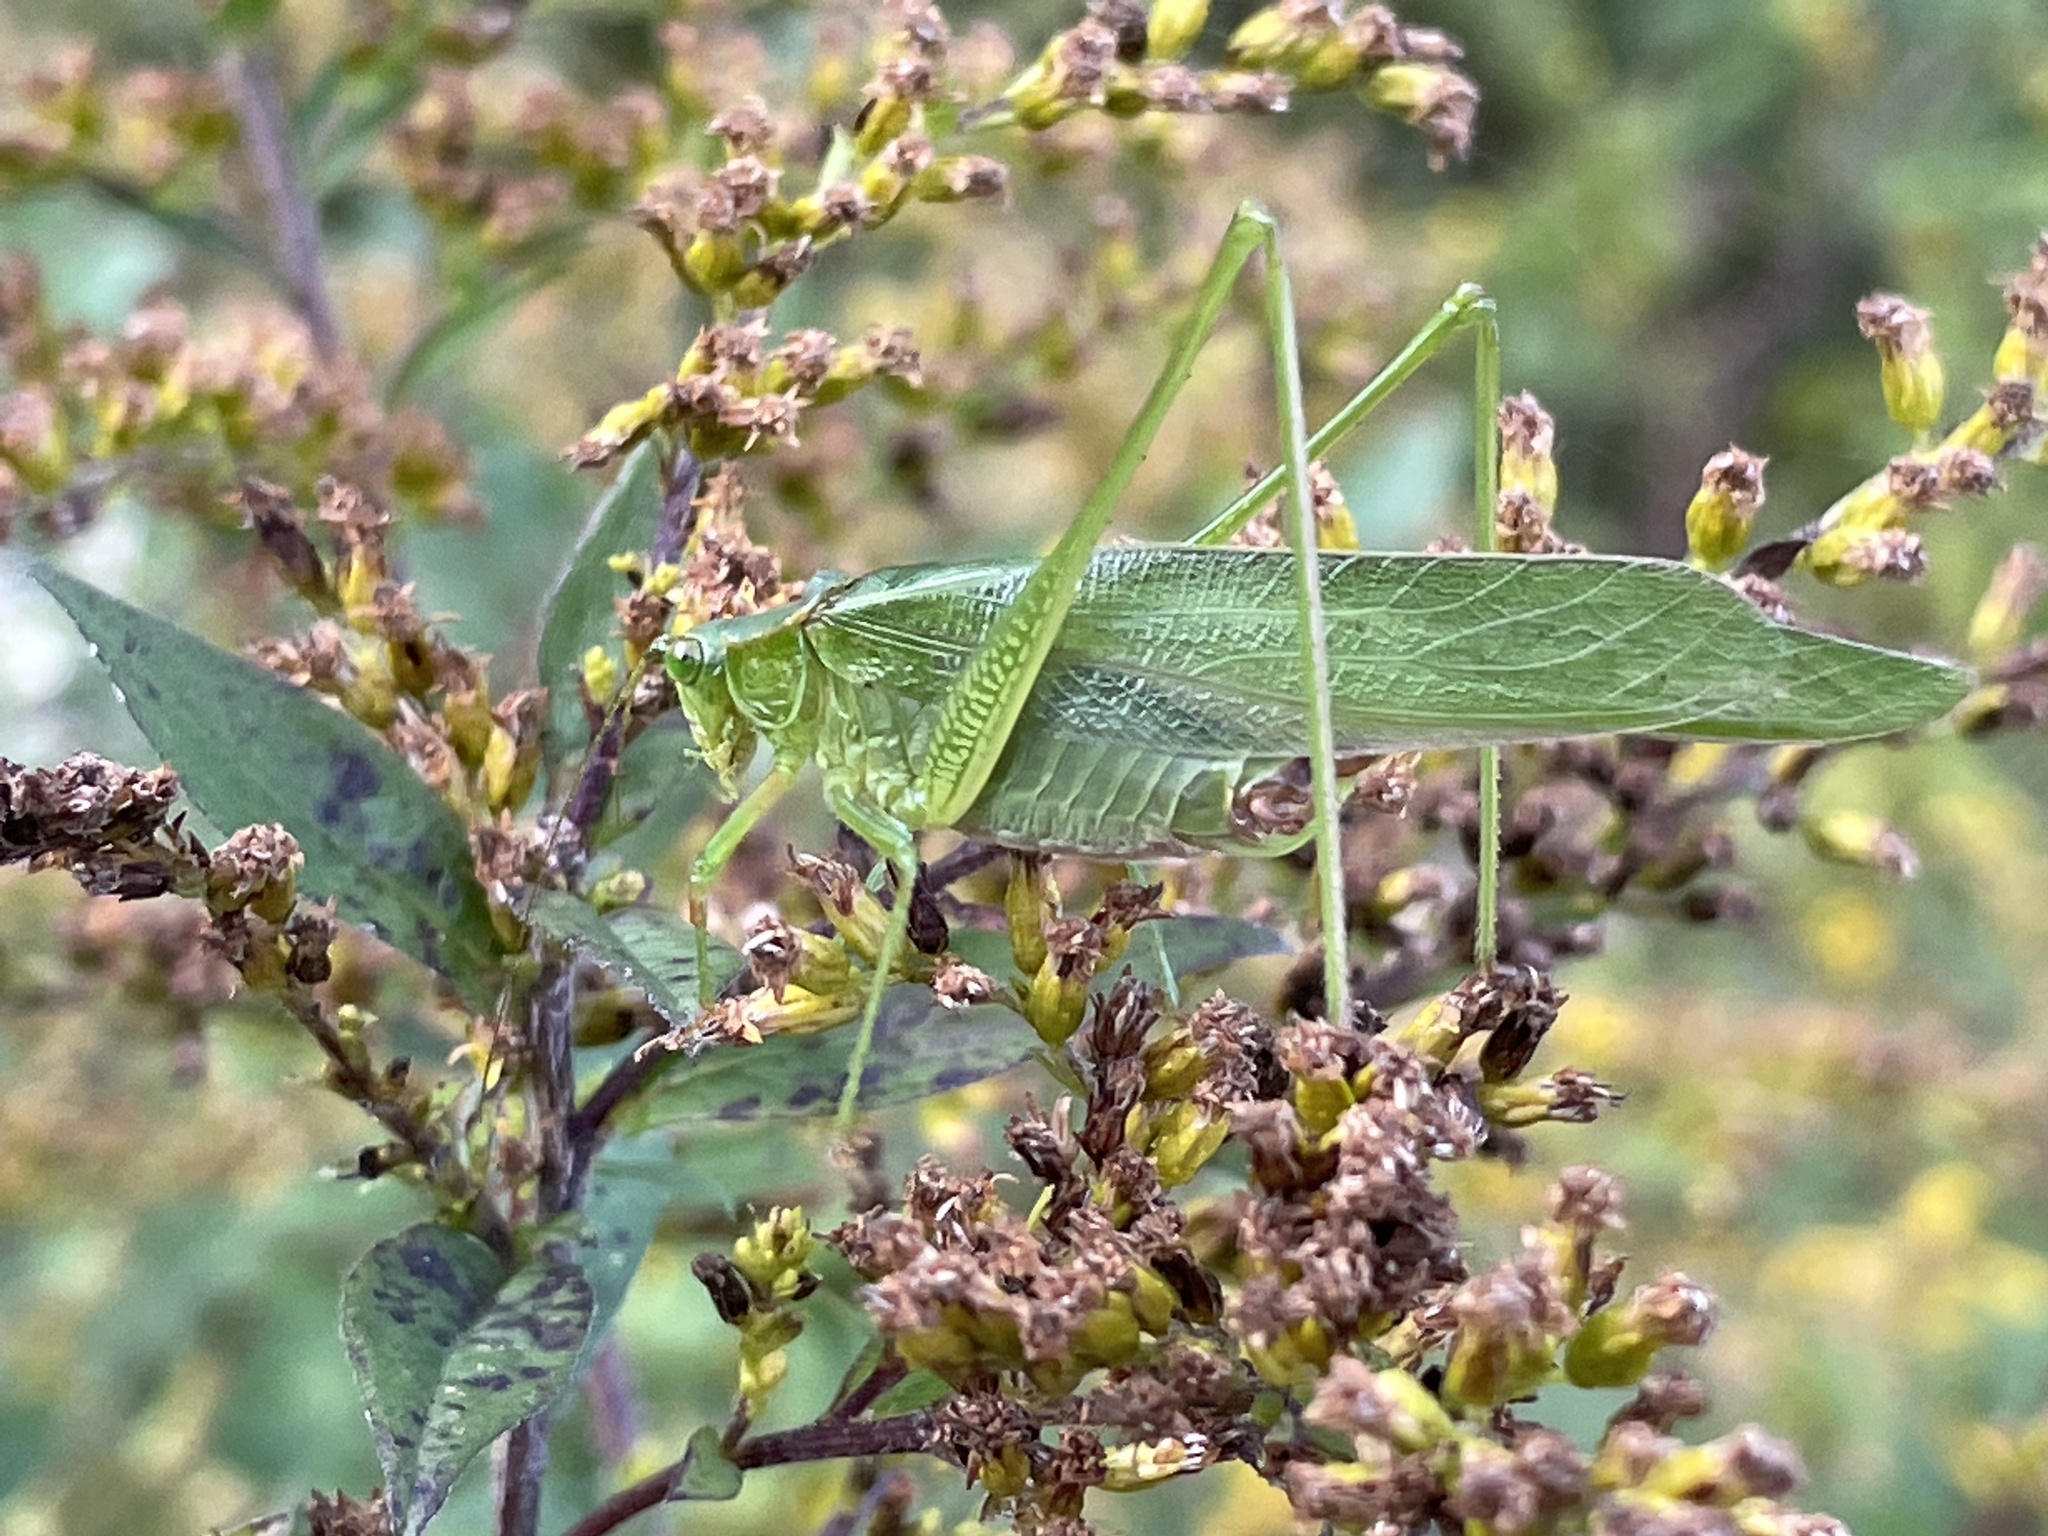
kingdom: Animalia
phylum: Arthropoda
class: Insecta
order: Orthoptera
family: Tettigoniidae
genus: Scudderia
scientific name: Scudderia furcata
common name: Fork-tailed bush katydid
